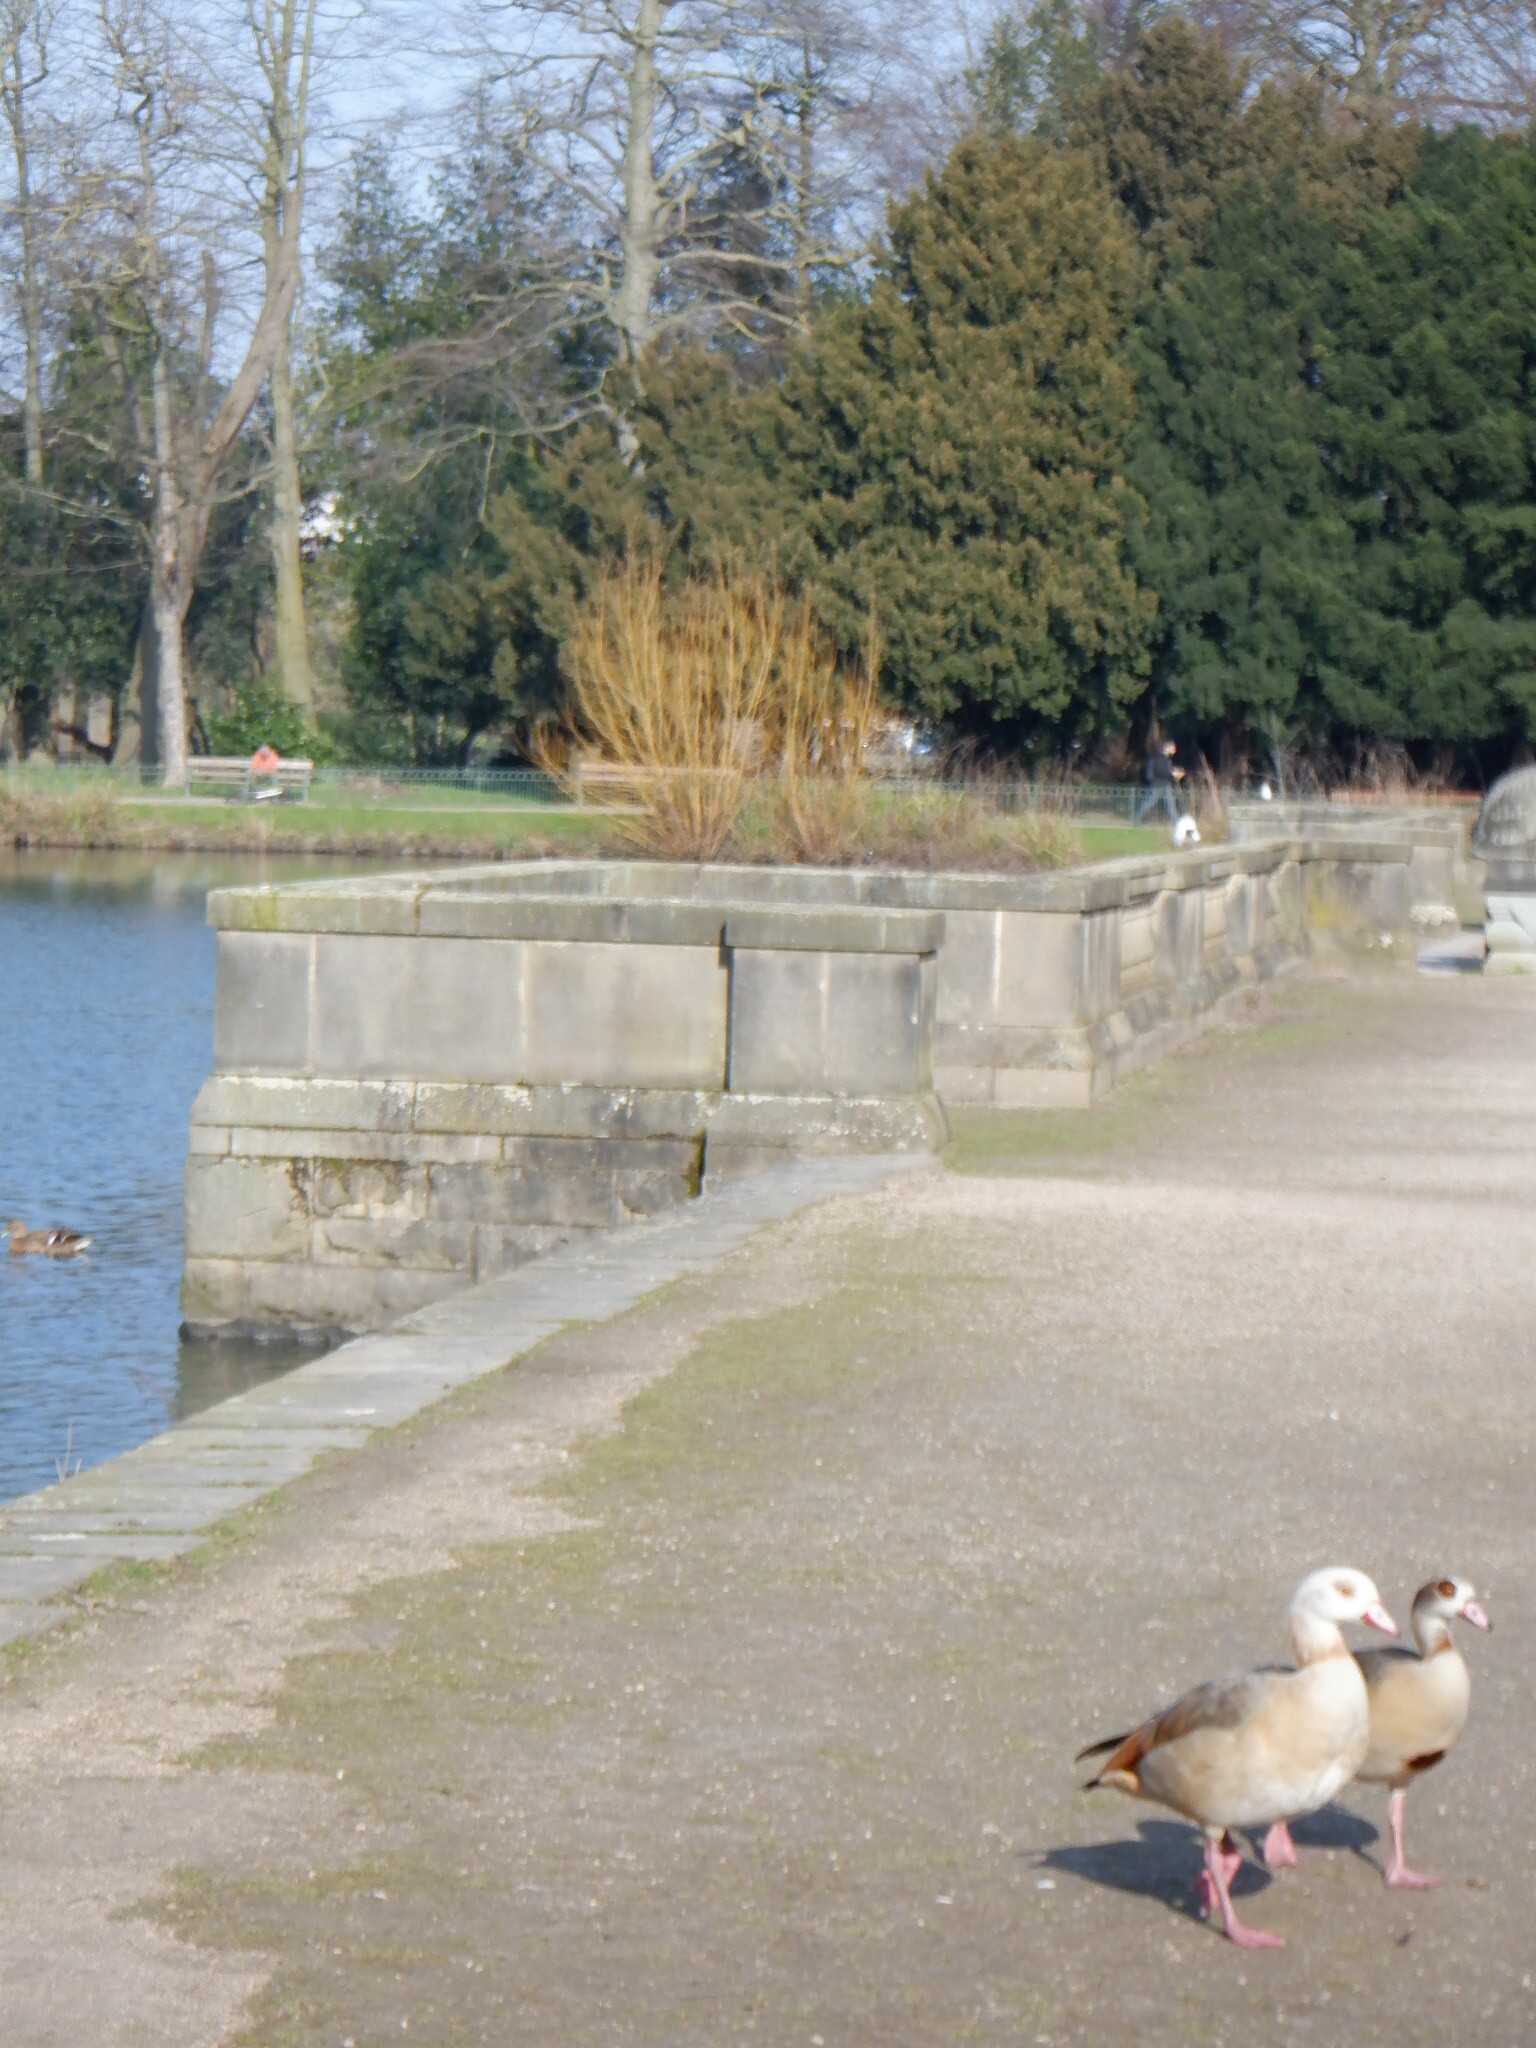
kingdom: Animalia
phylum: Chordata
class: Aves
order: Anseriformes
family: Anatidae
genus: Alopochen
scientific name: Alopochen aegyptiaca
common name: Egyptian goose
